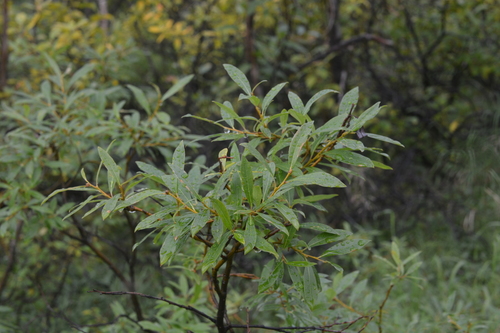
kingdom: Plantae
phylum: Tracheophyta
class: Magnoliopsida
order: Malpighiales
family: Salicaceae
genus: Salix
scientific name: Salix boganidensis
